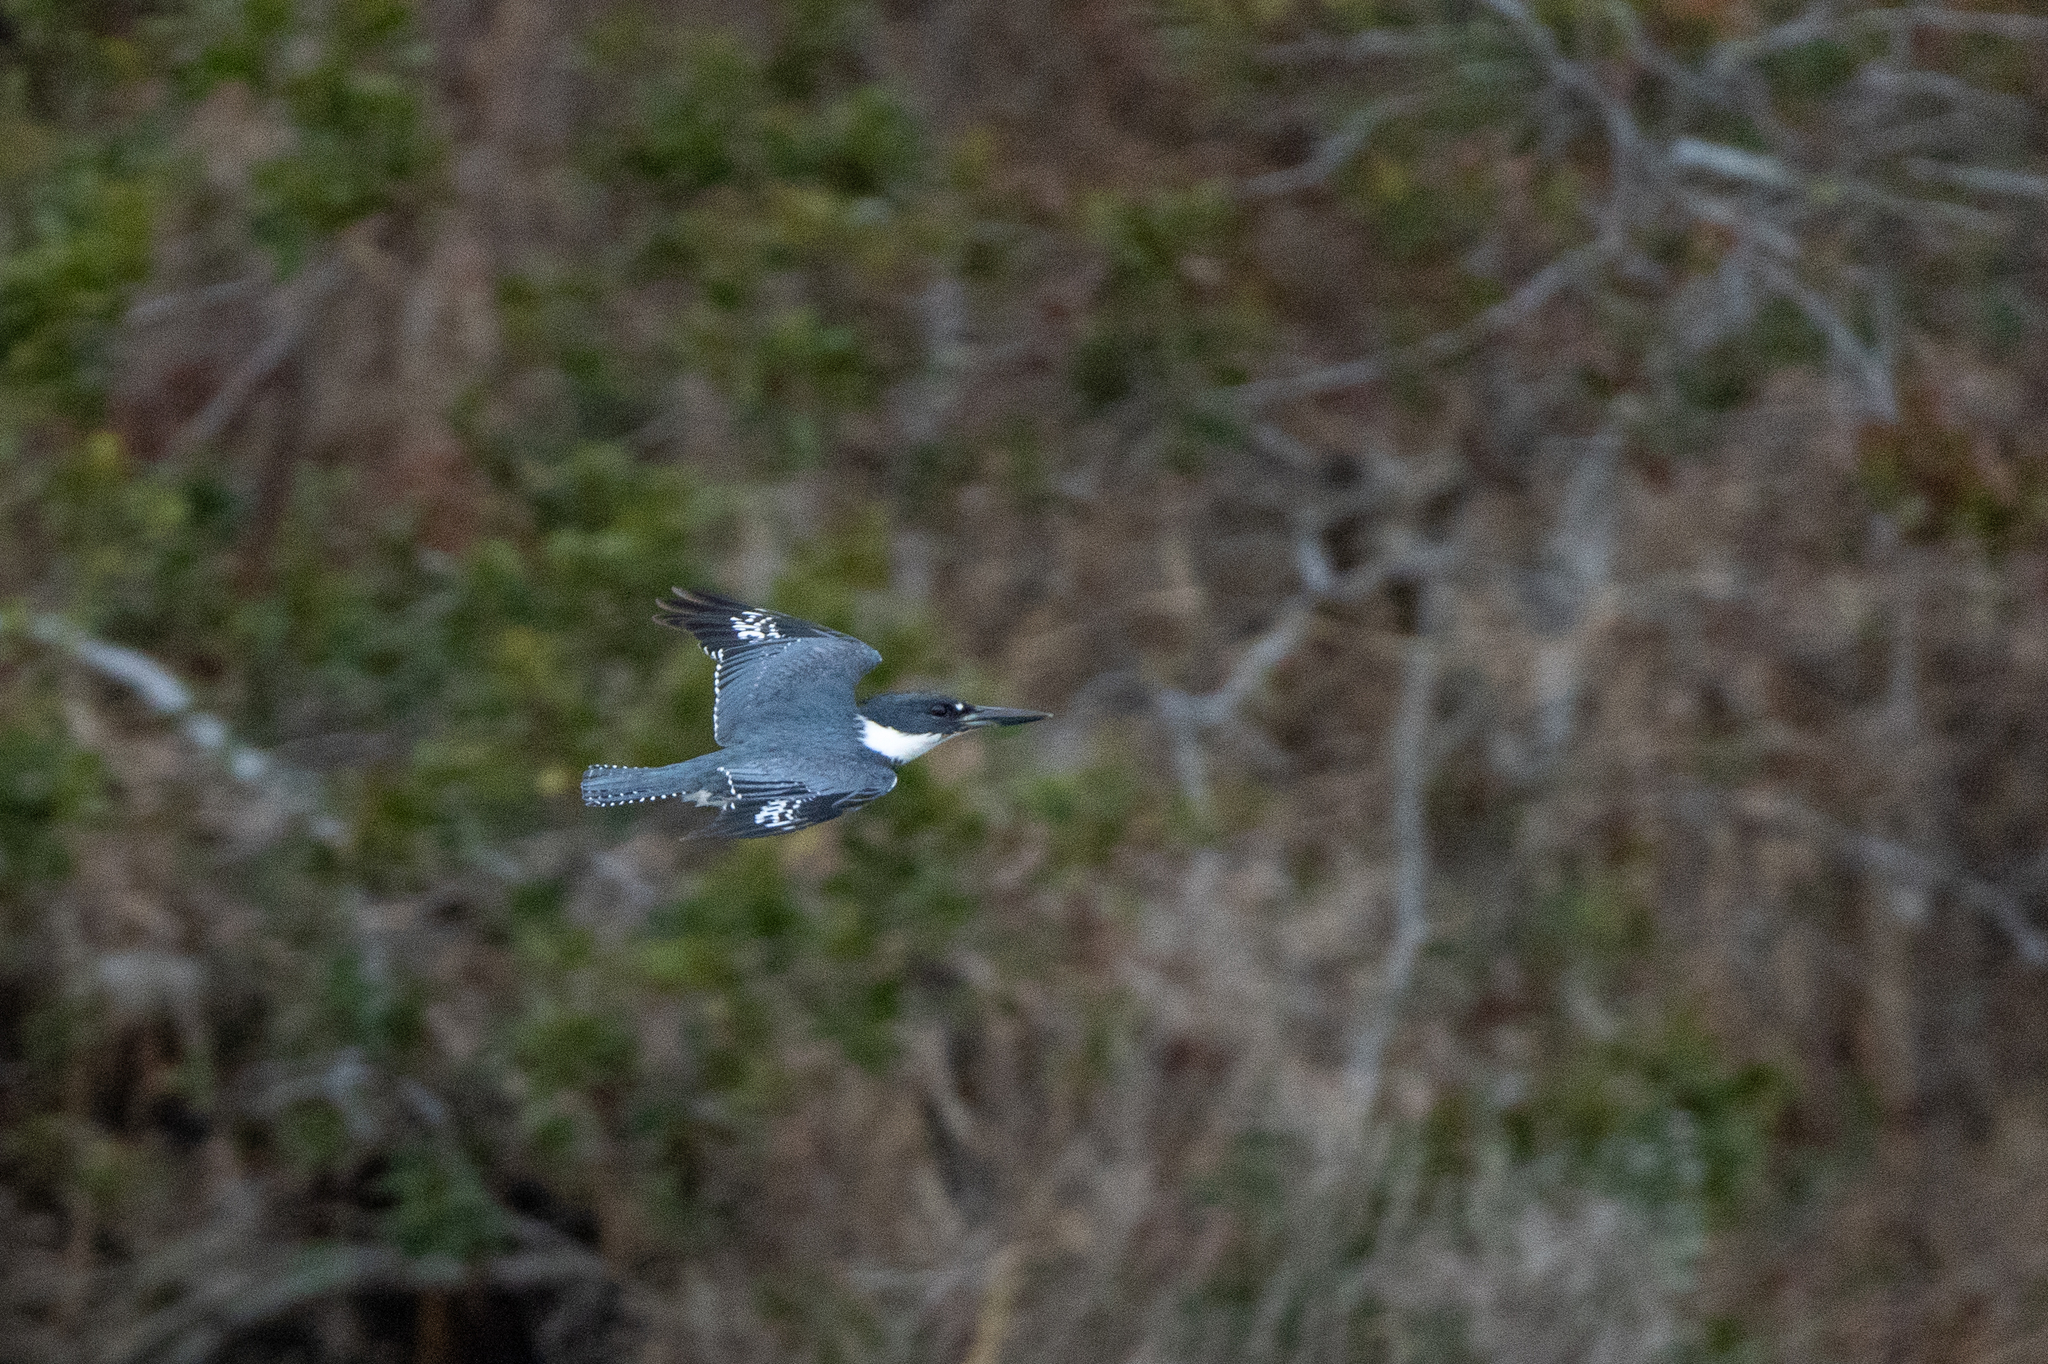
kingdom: Animalia
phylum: Chordata
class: Aves
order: Coraciiformes
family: Alcedinidae
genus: Megaceryle
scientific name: Megaceryle alcyon
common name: Belted kingfisher
